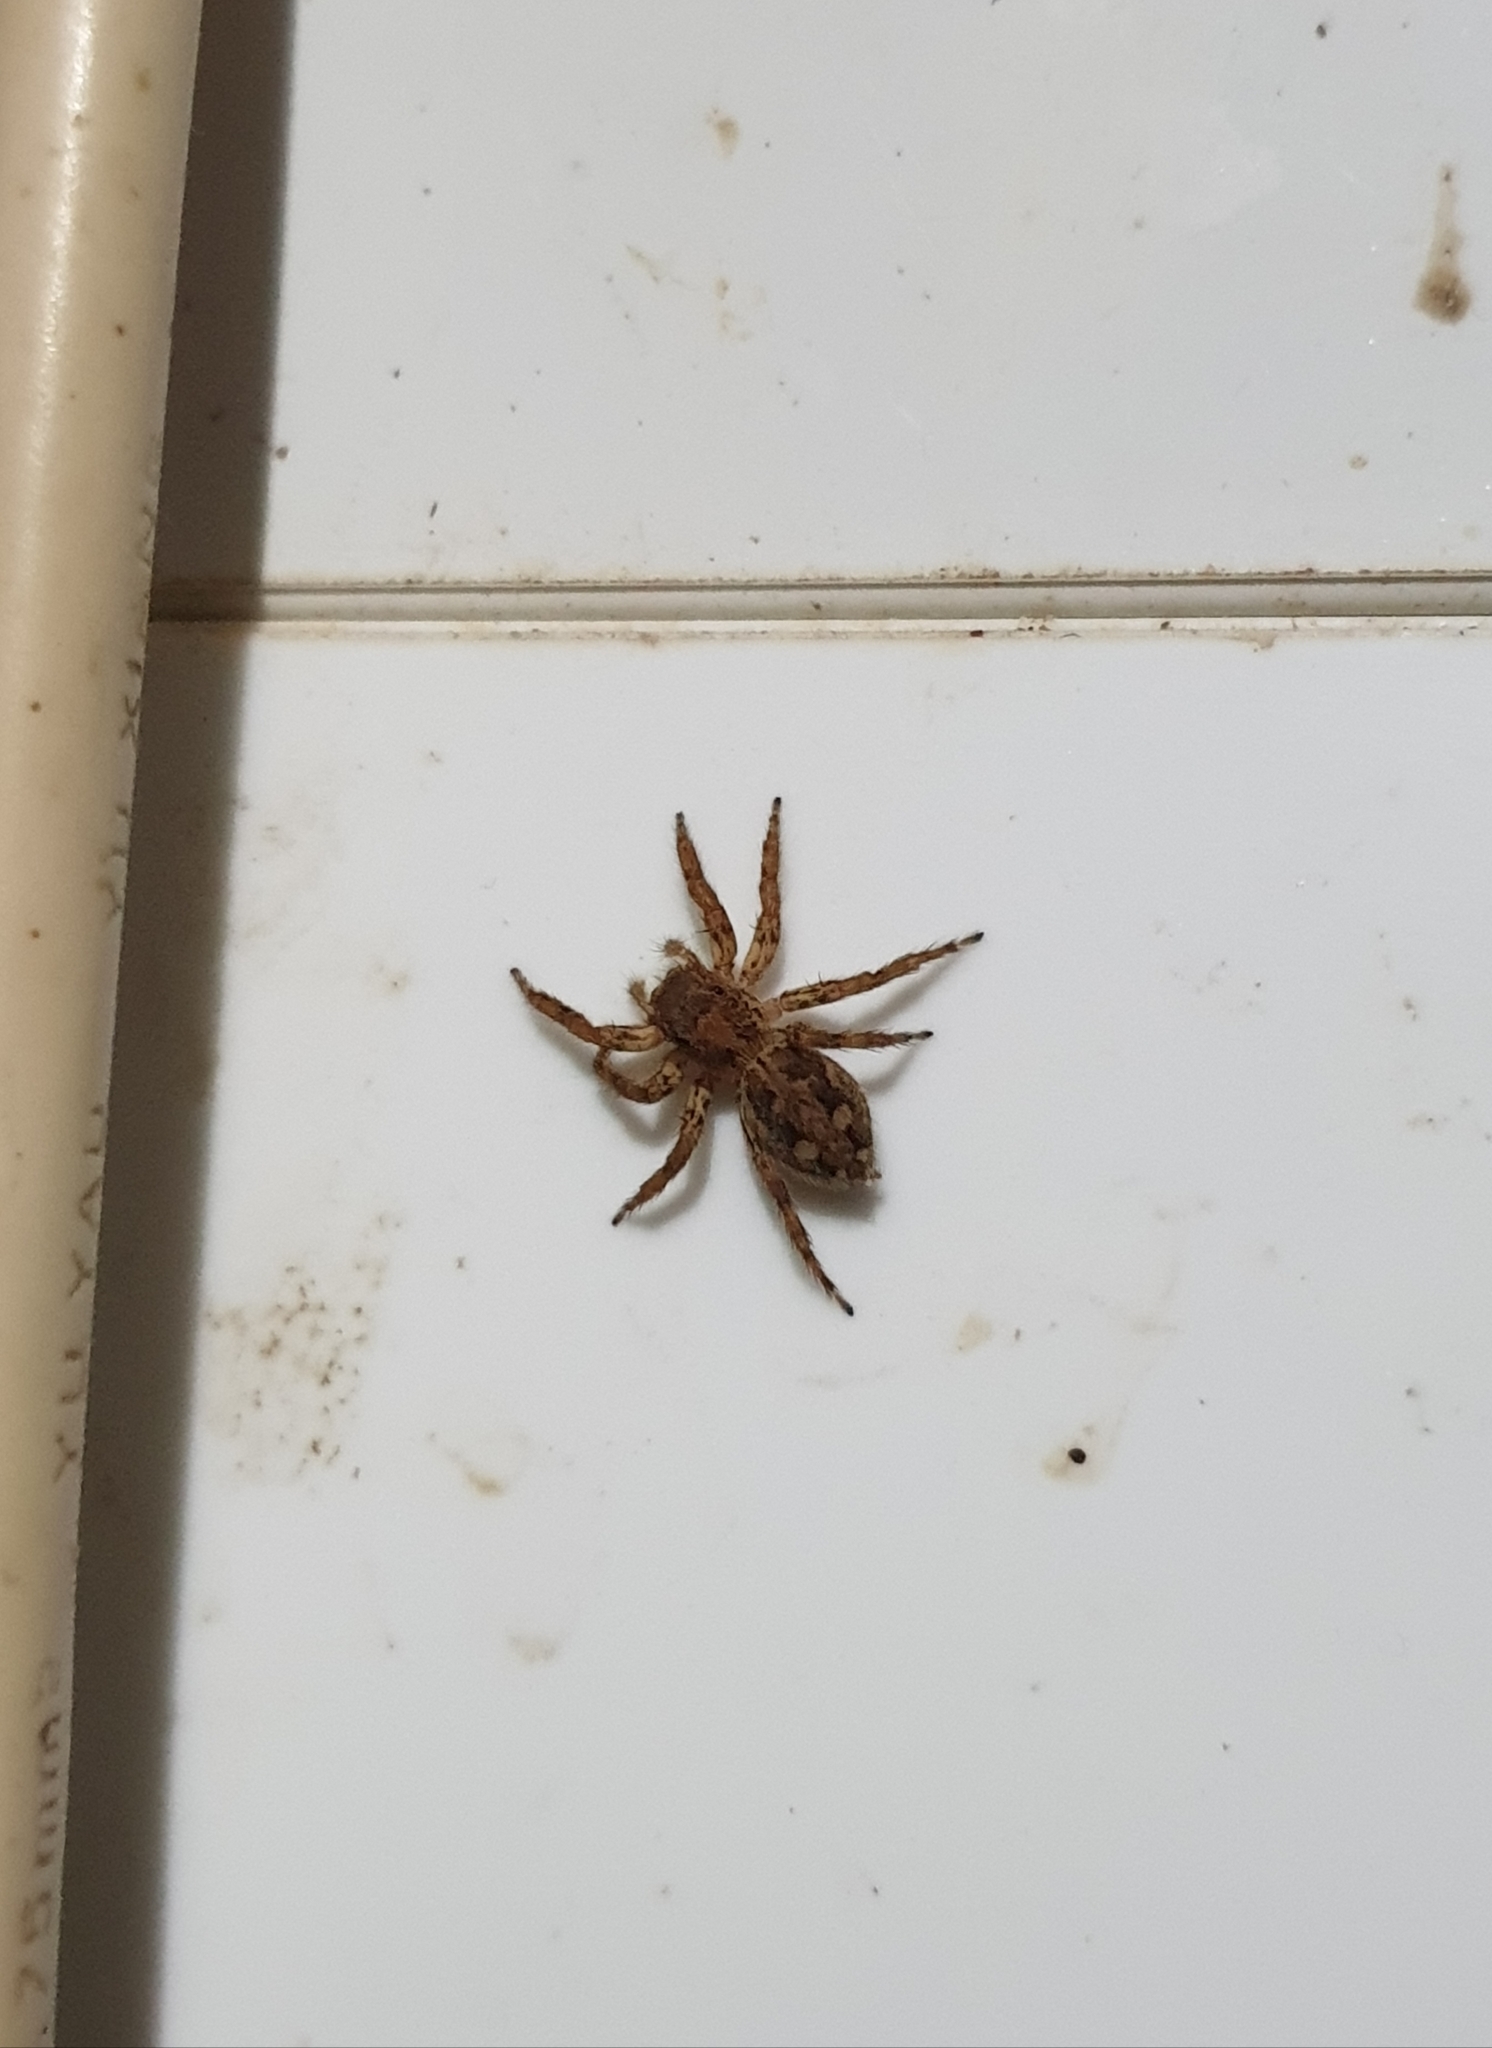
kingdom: Animalia
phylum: Arthropoda
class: Arachnida
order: Araneae
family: Salticidae
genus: Plexippus
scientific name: Plexippus
